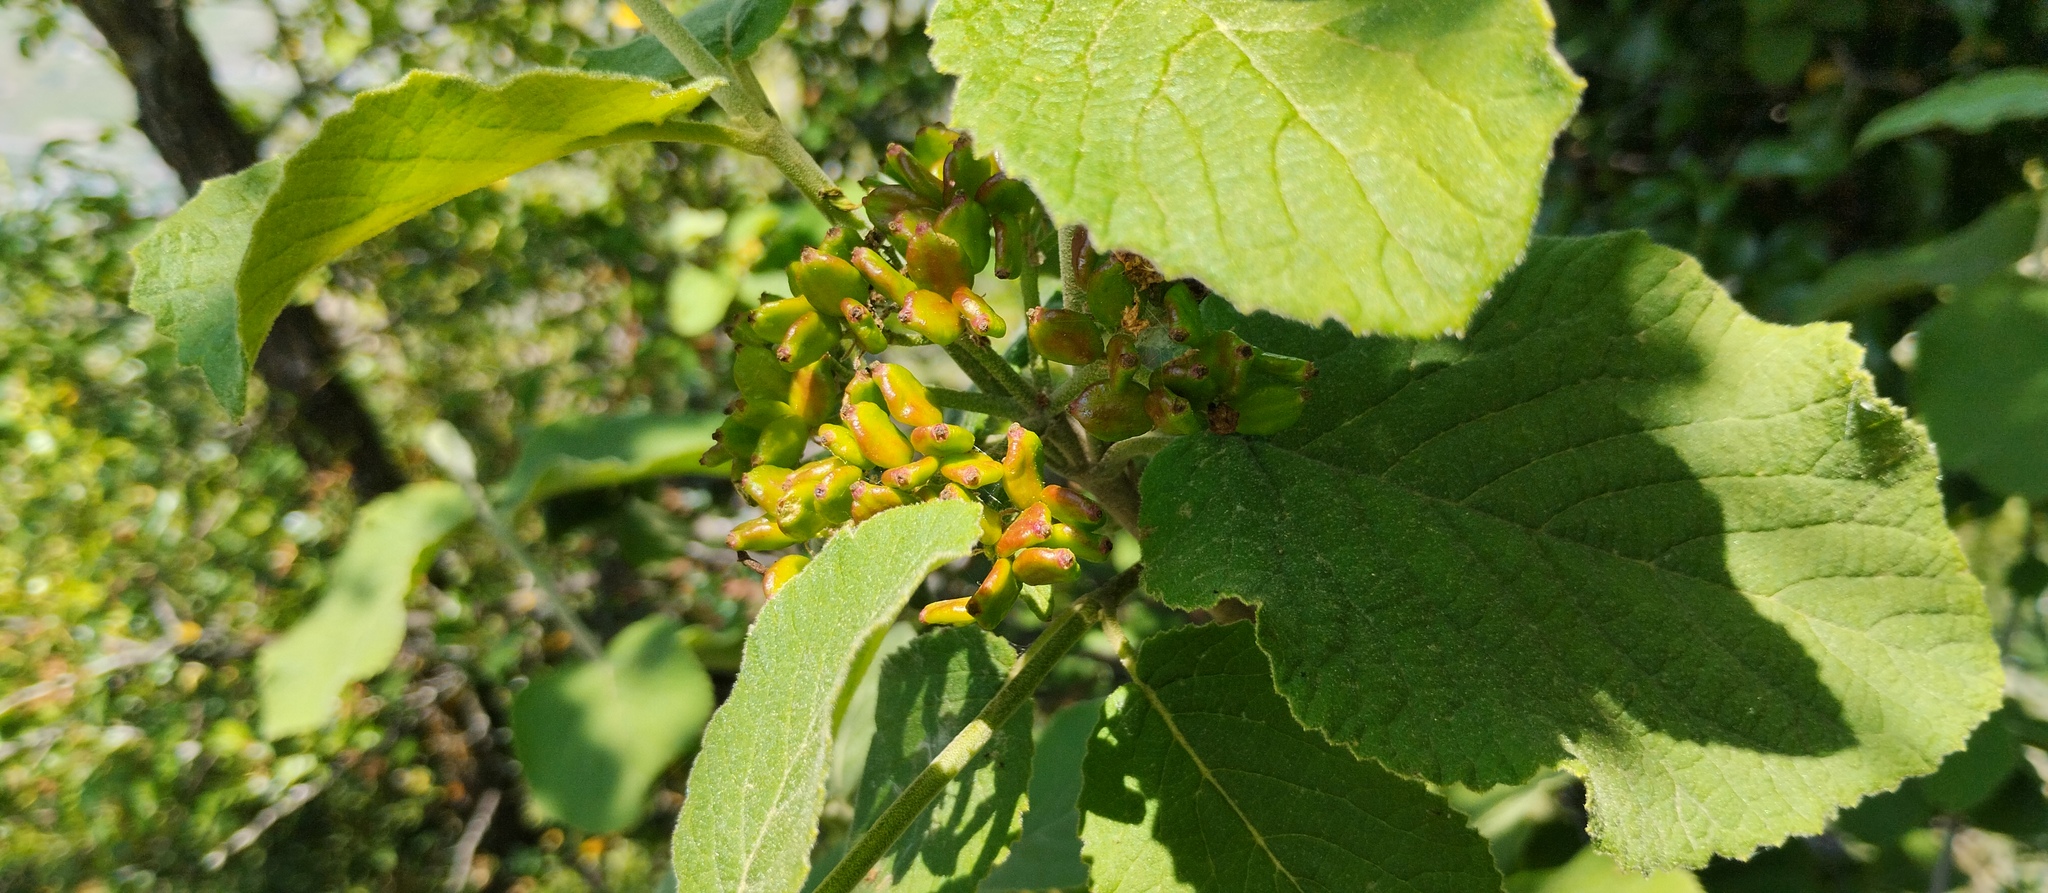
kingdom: Plantae
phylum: Tracheophyta
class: Magnoliopsida
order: Dipsacales
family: Viburnaceae
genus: Viburnum
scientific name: Viburnum lantana
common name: Wayfaring tree
